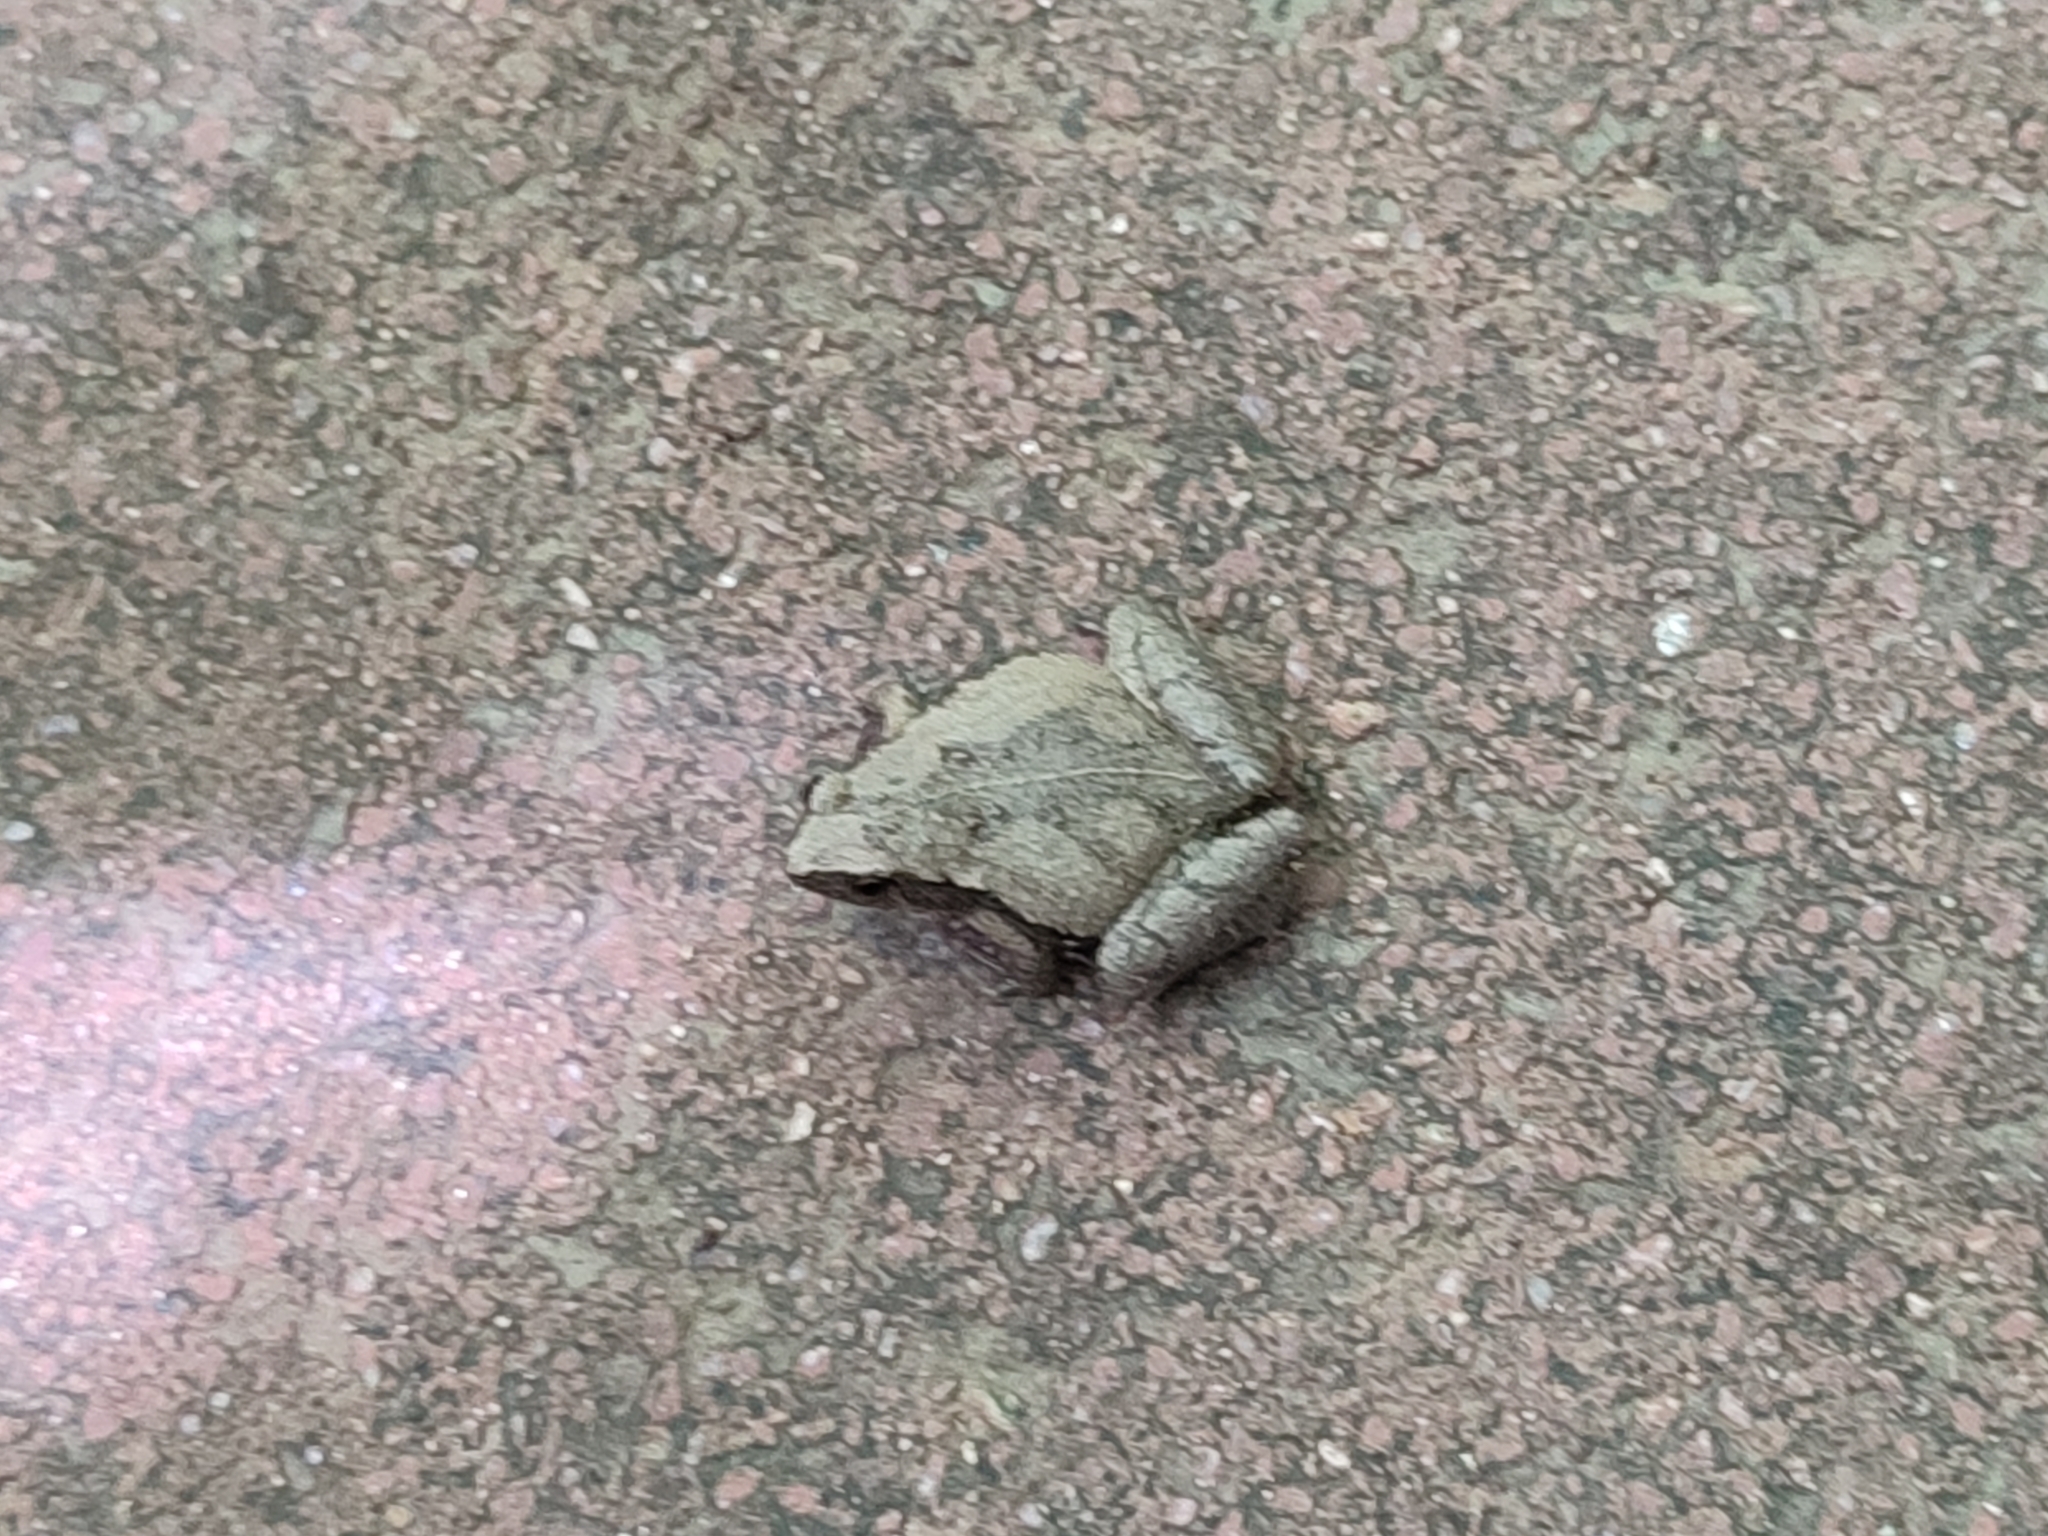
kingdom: Animalia
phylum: Chordata
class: Amphibia
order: Anura
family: Microhylidae
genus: Microhyla
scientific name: Microhyla fissipes
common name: Ornate narrow-mouthed frog
